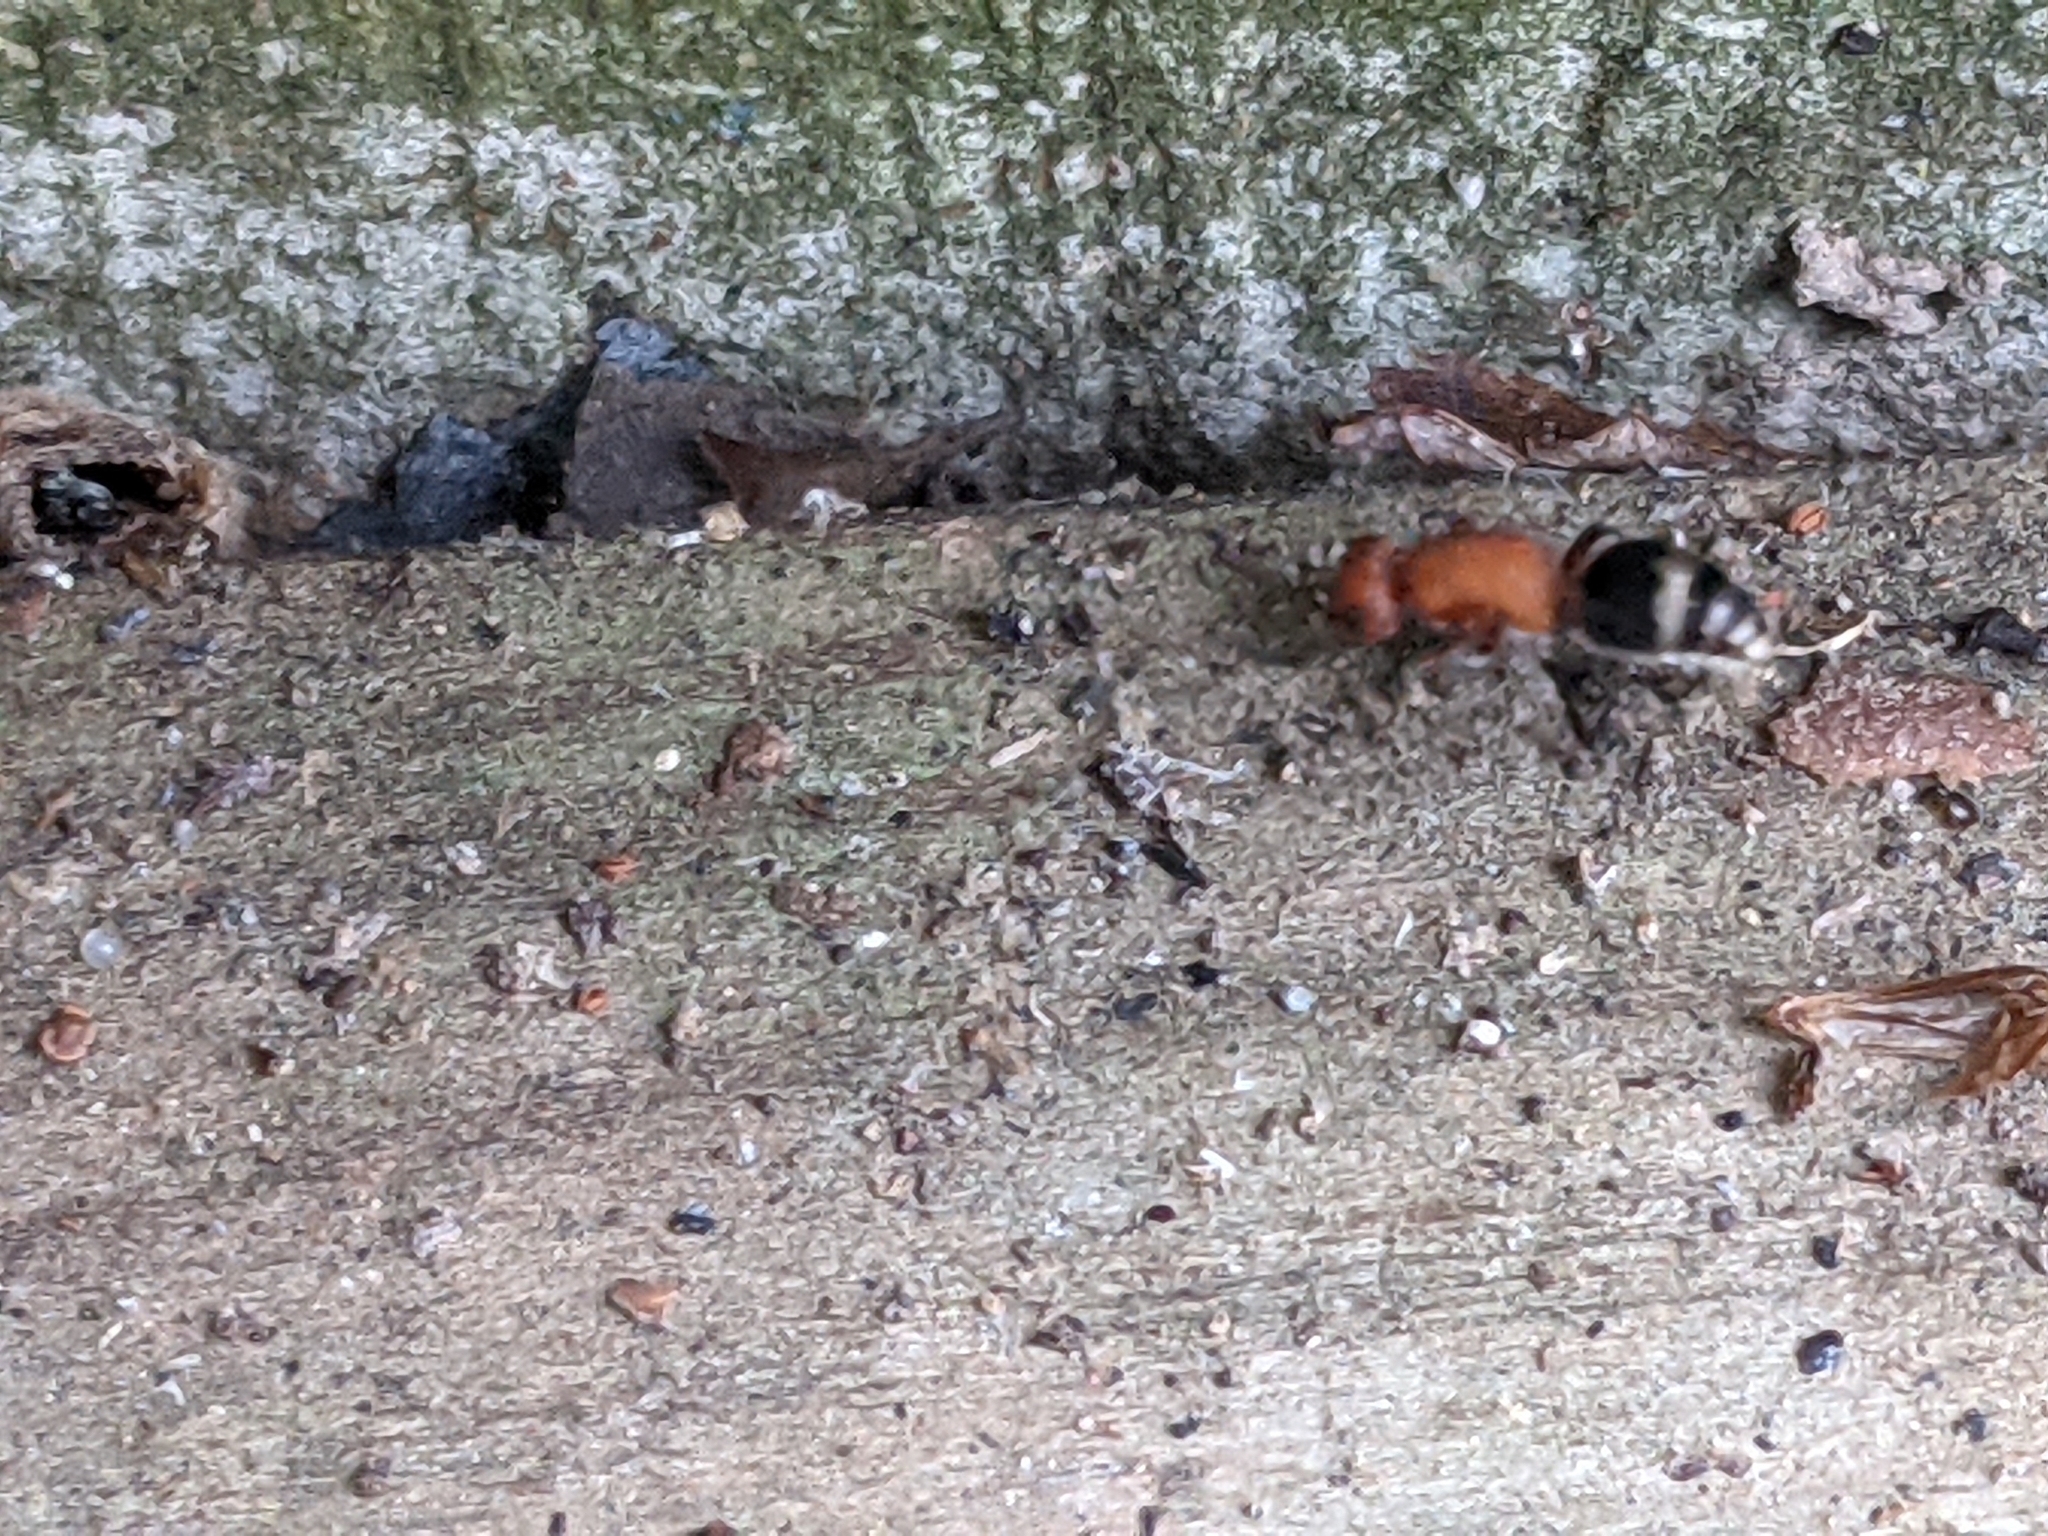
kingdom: Animalia
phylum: Arthropoda
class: Insecta
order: Hymenoptera
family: Mutillidae
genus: Timulla
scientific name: Timulla
